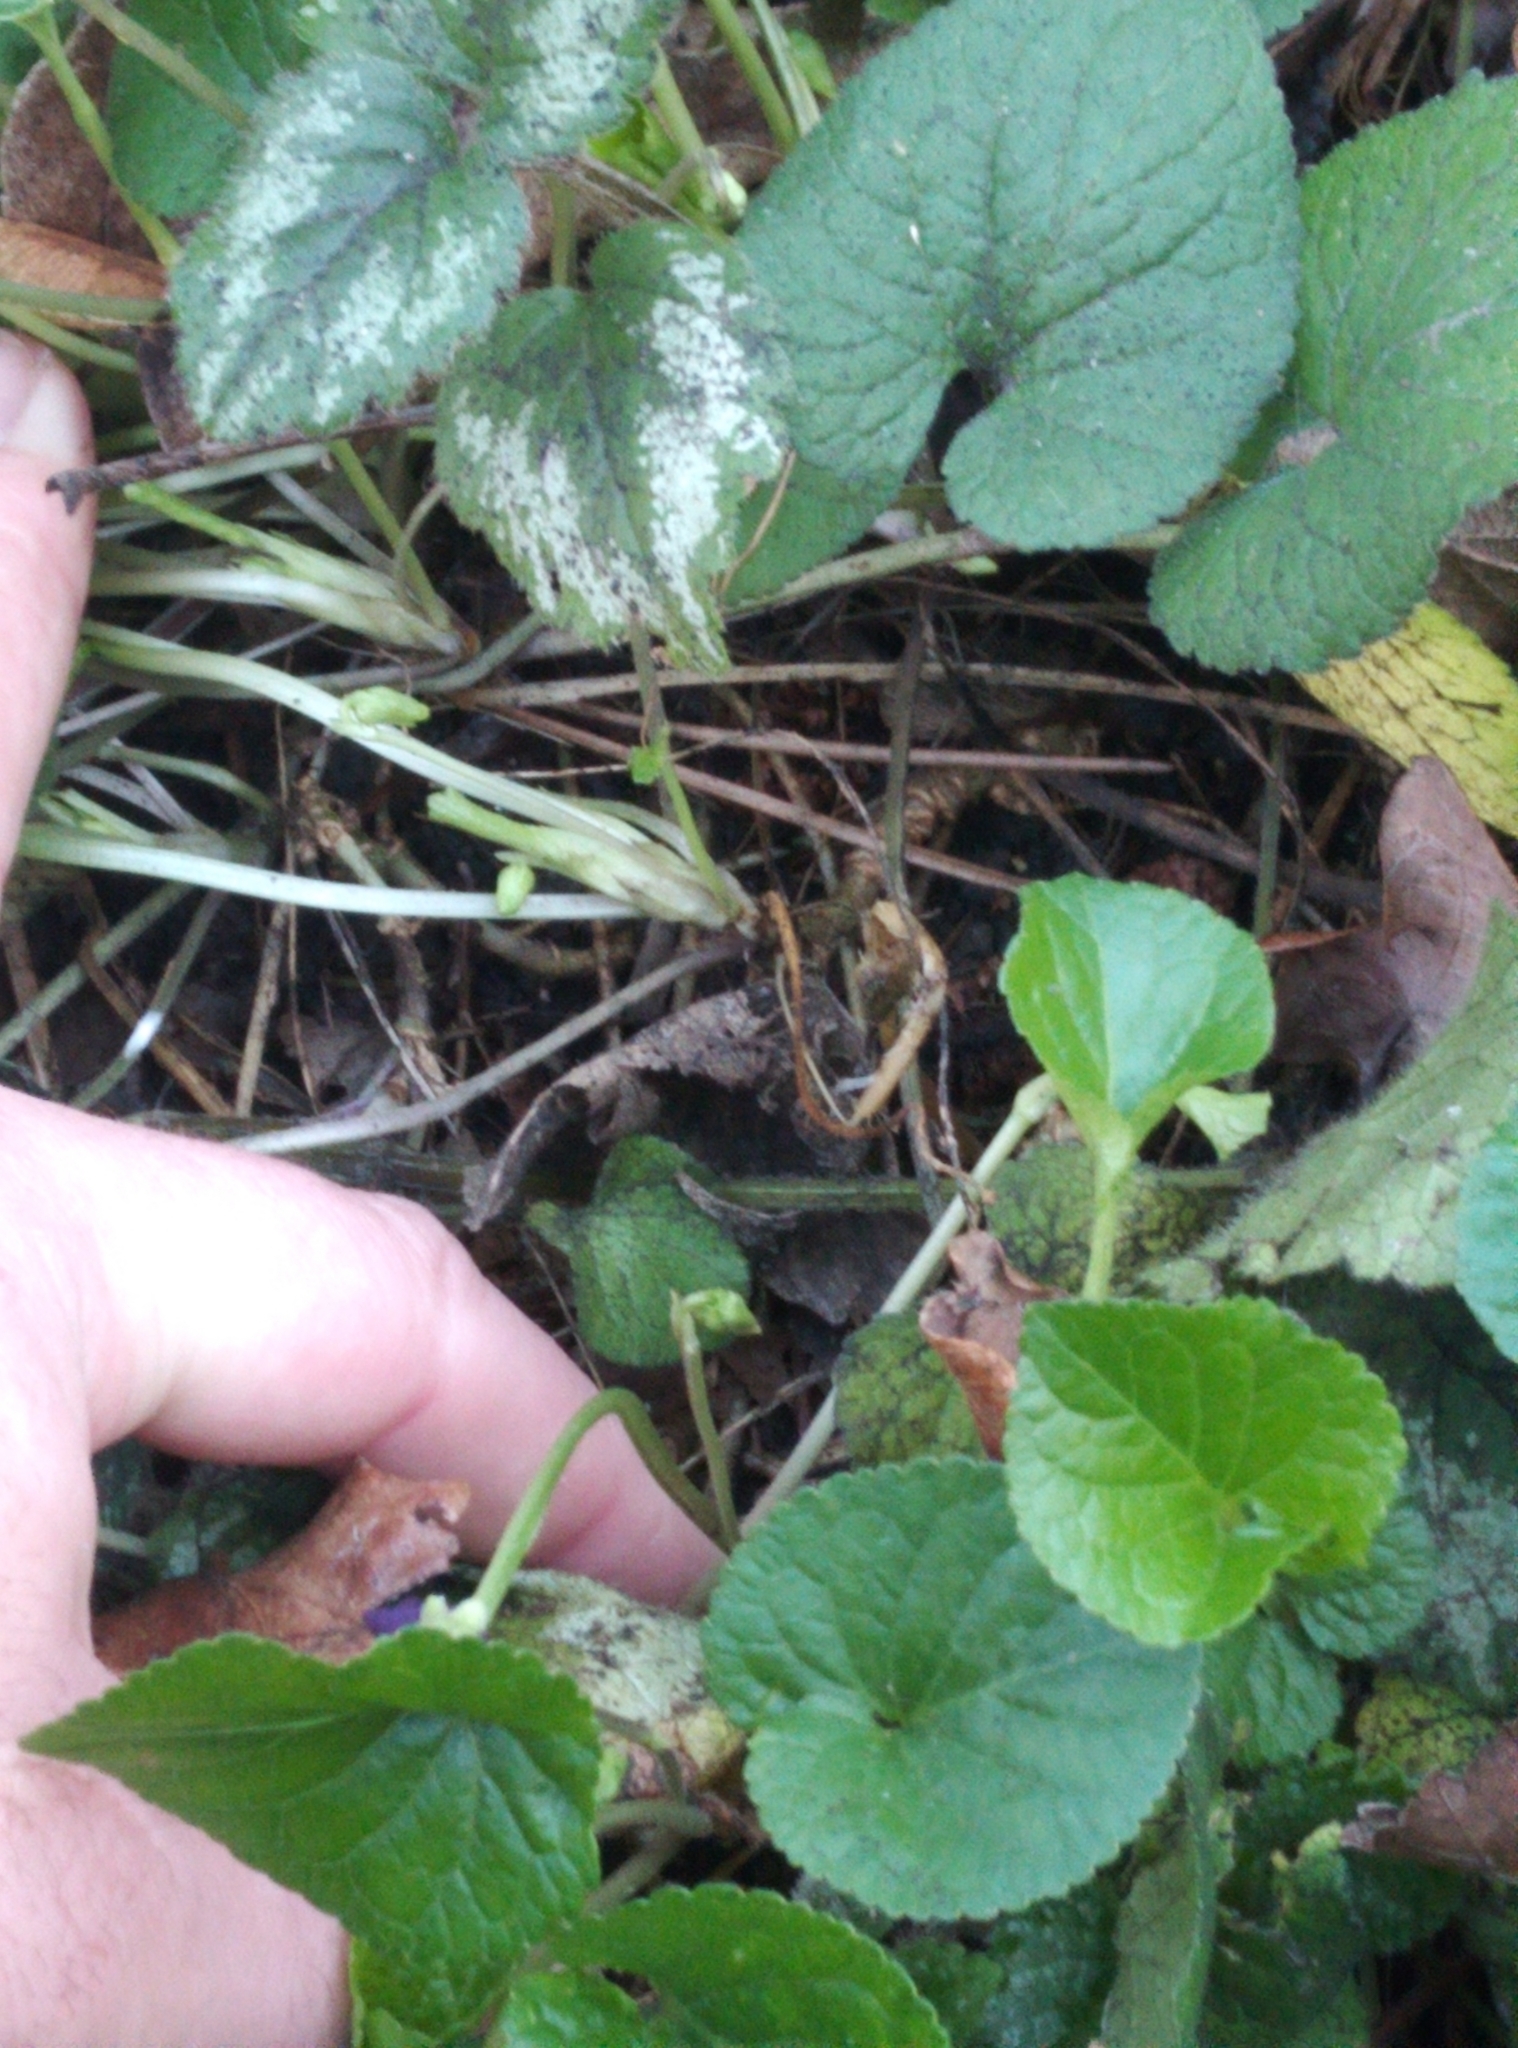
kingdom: Plantae
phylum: Tracheophyta
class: Magnoliopsida
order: Malpighiales
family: Violaceae
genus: Viola
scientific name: Viola odorata
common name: Sweet violet
